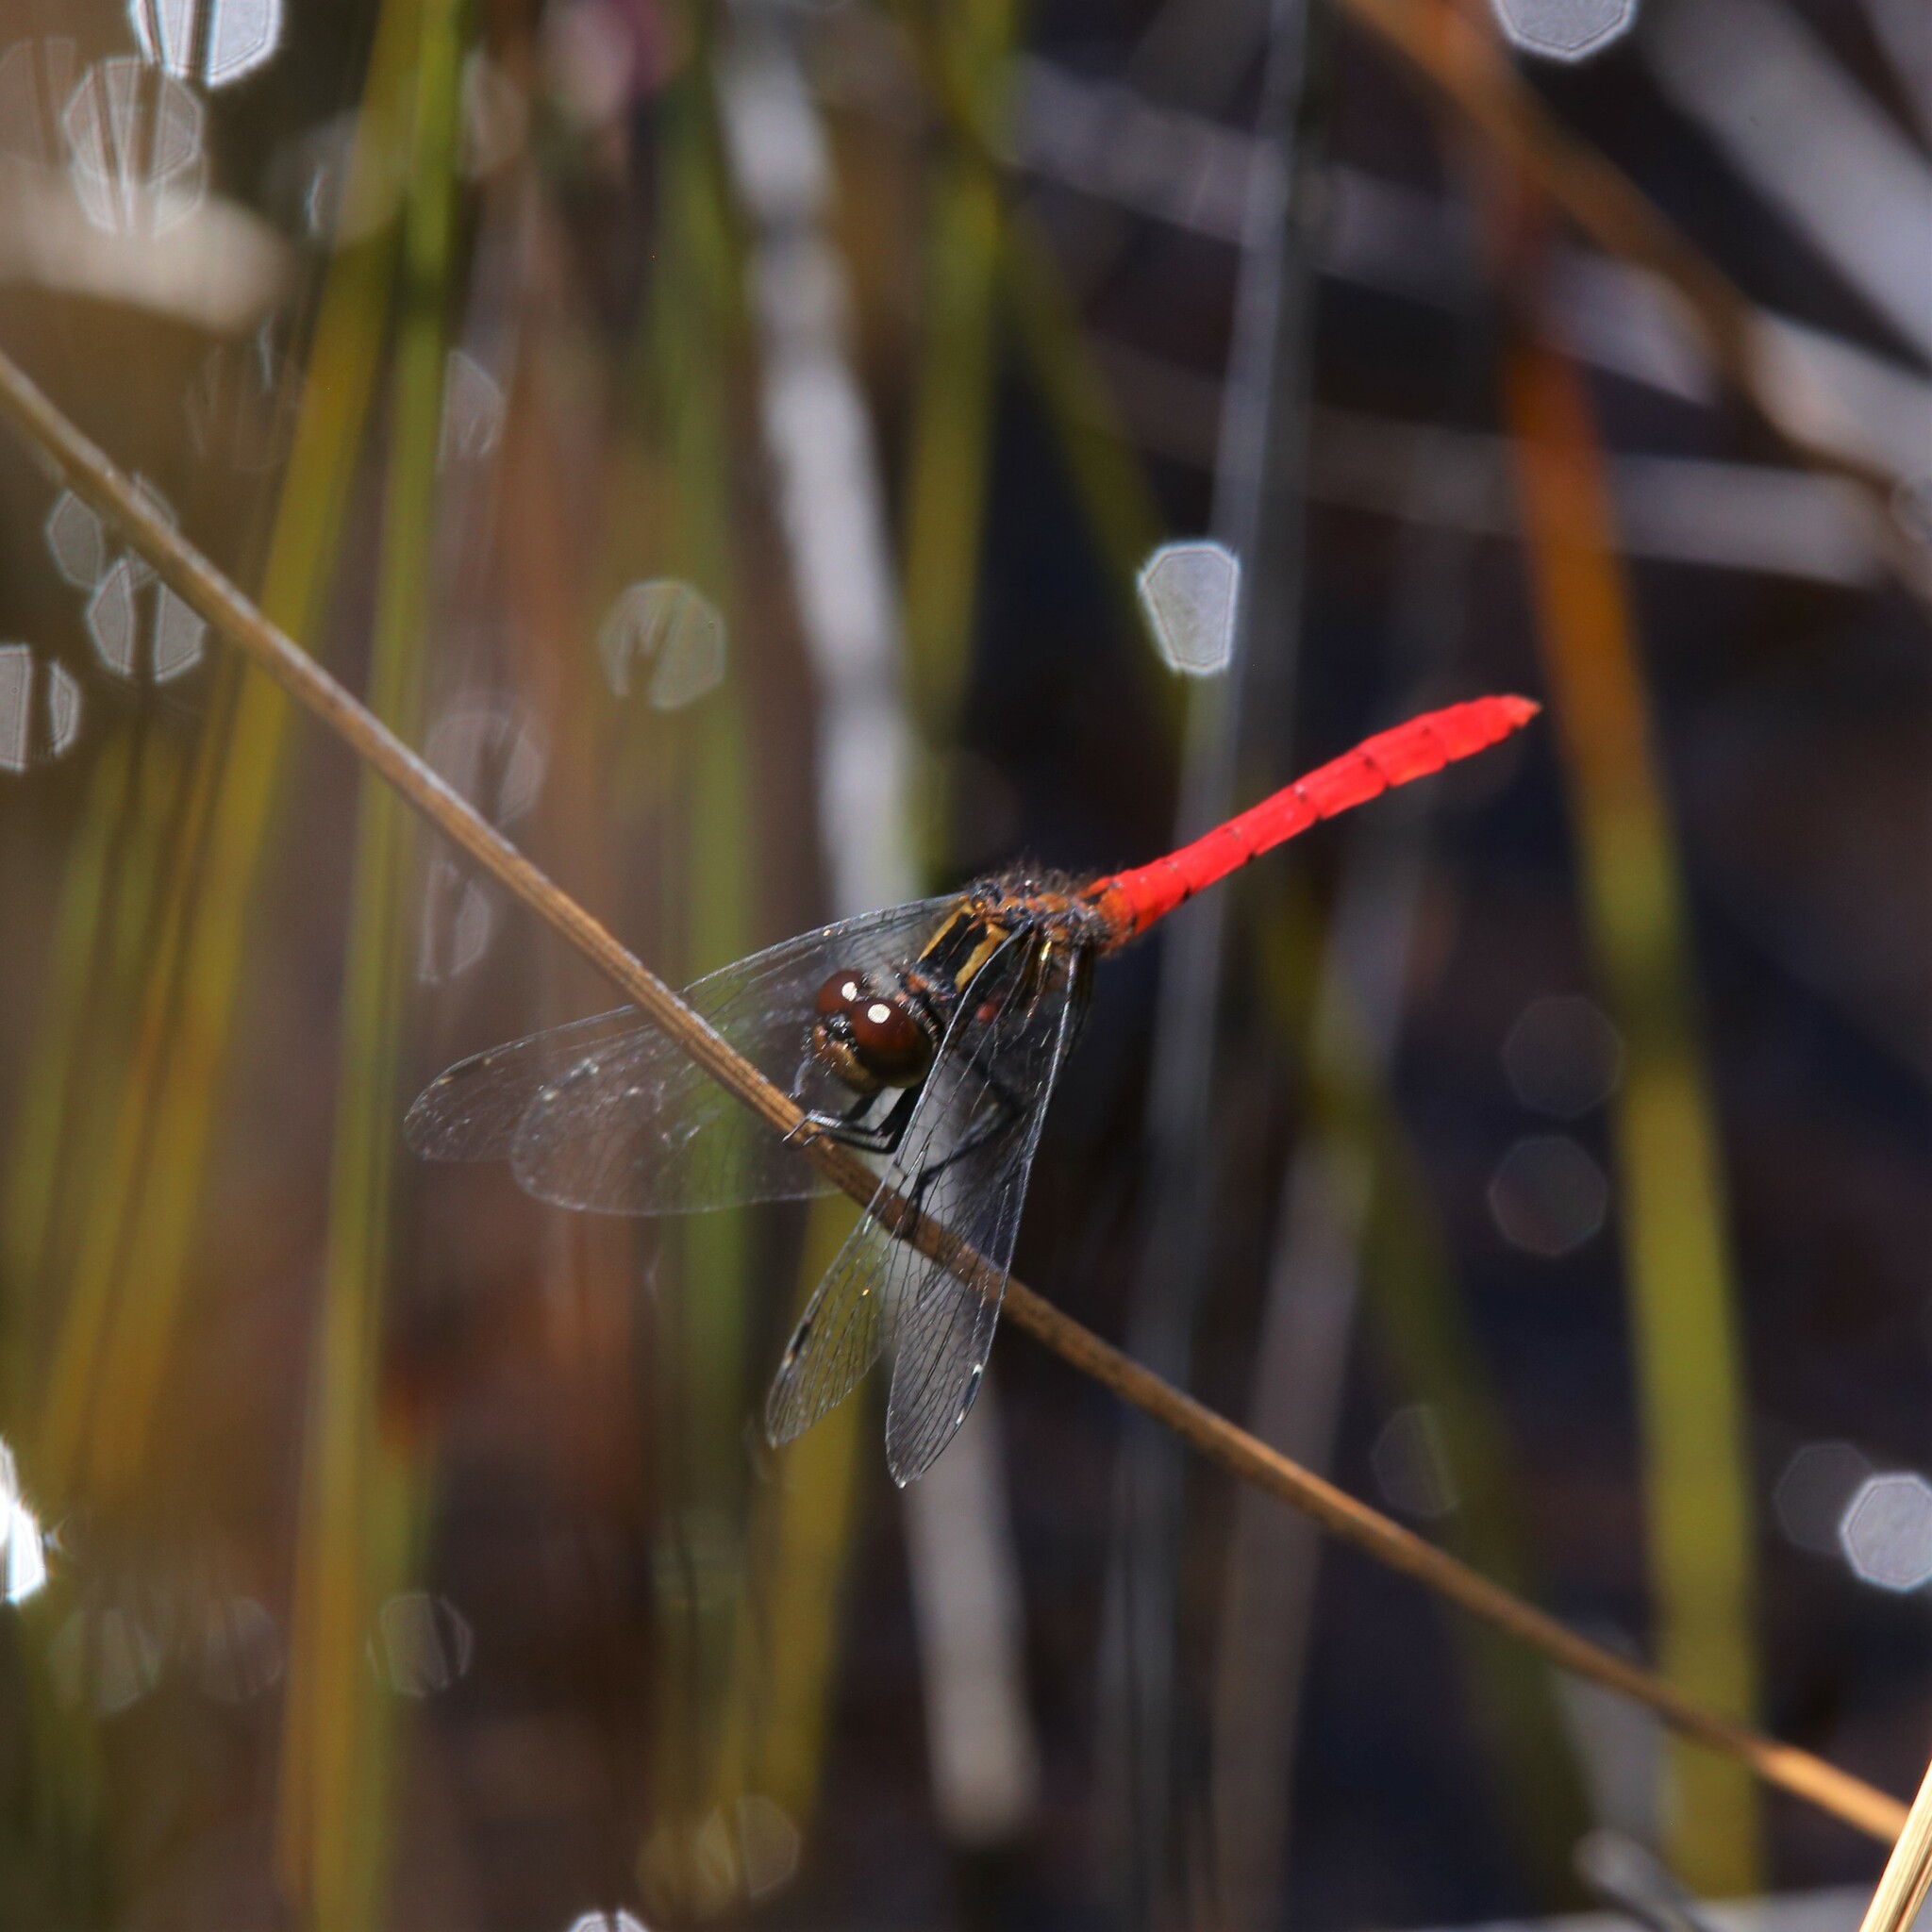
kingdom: Animalia
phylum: Arthropoda
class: Insecta
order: Odonata
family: Libellulidae
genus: Nannophya
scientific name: Nannophya occidentalis
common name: Western pygmyfly
